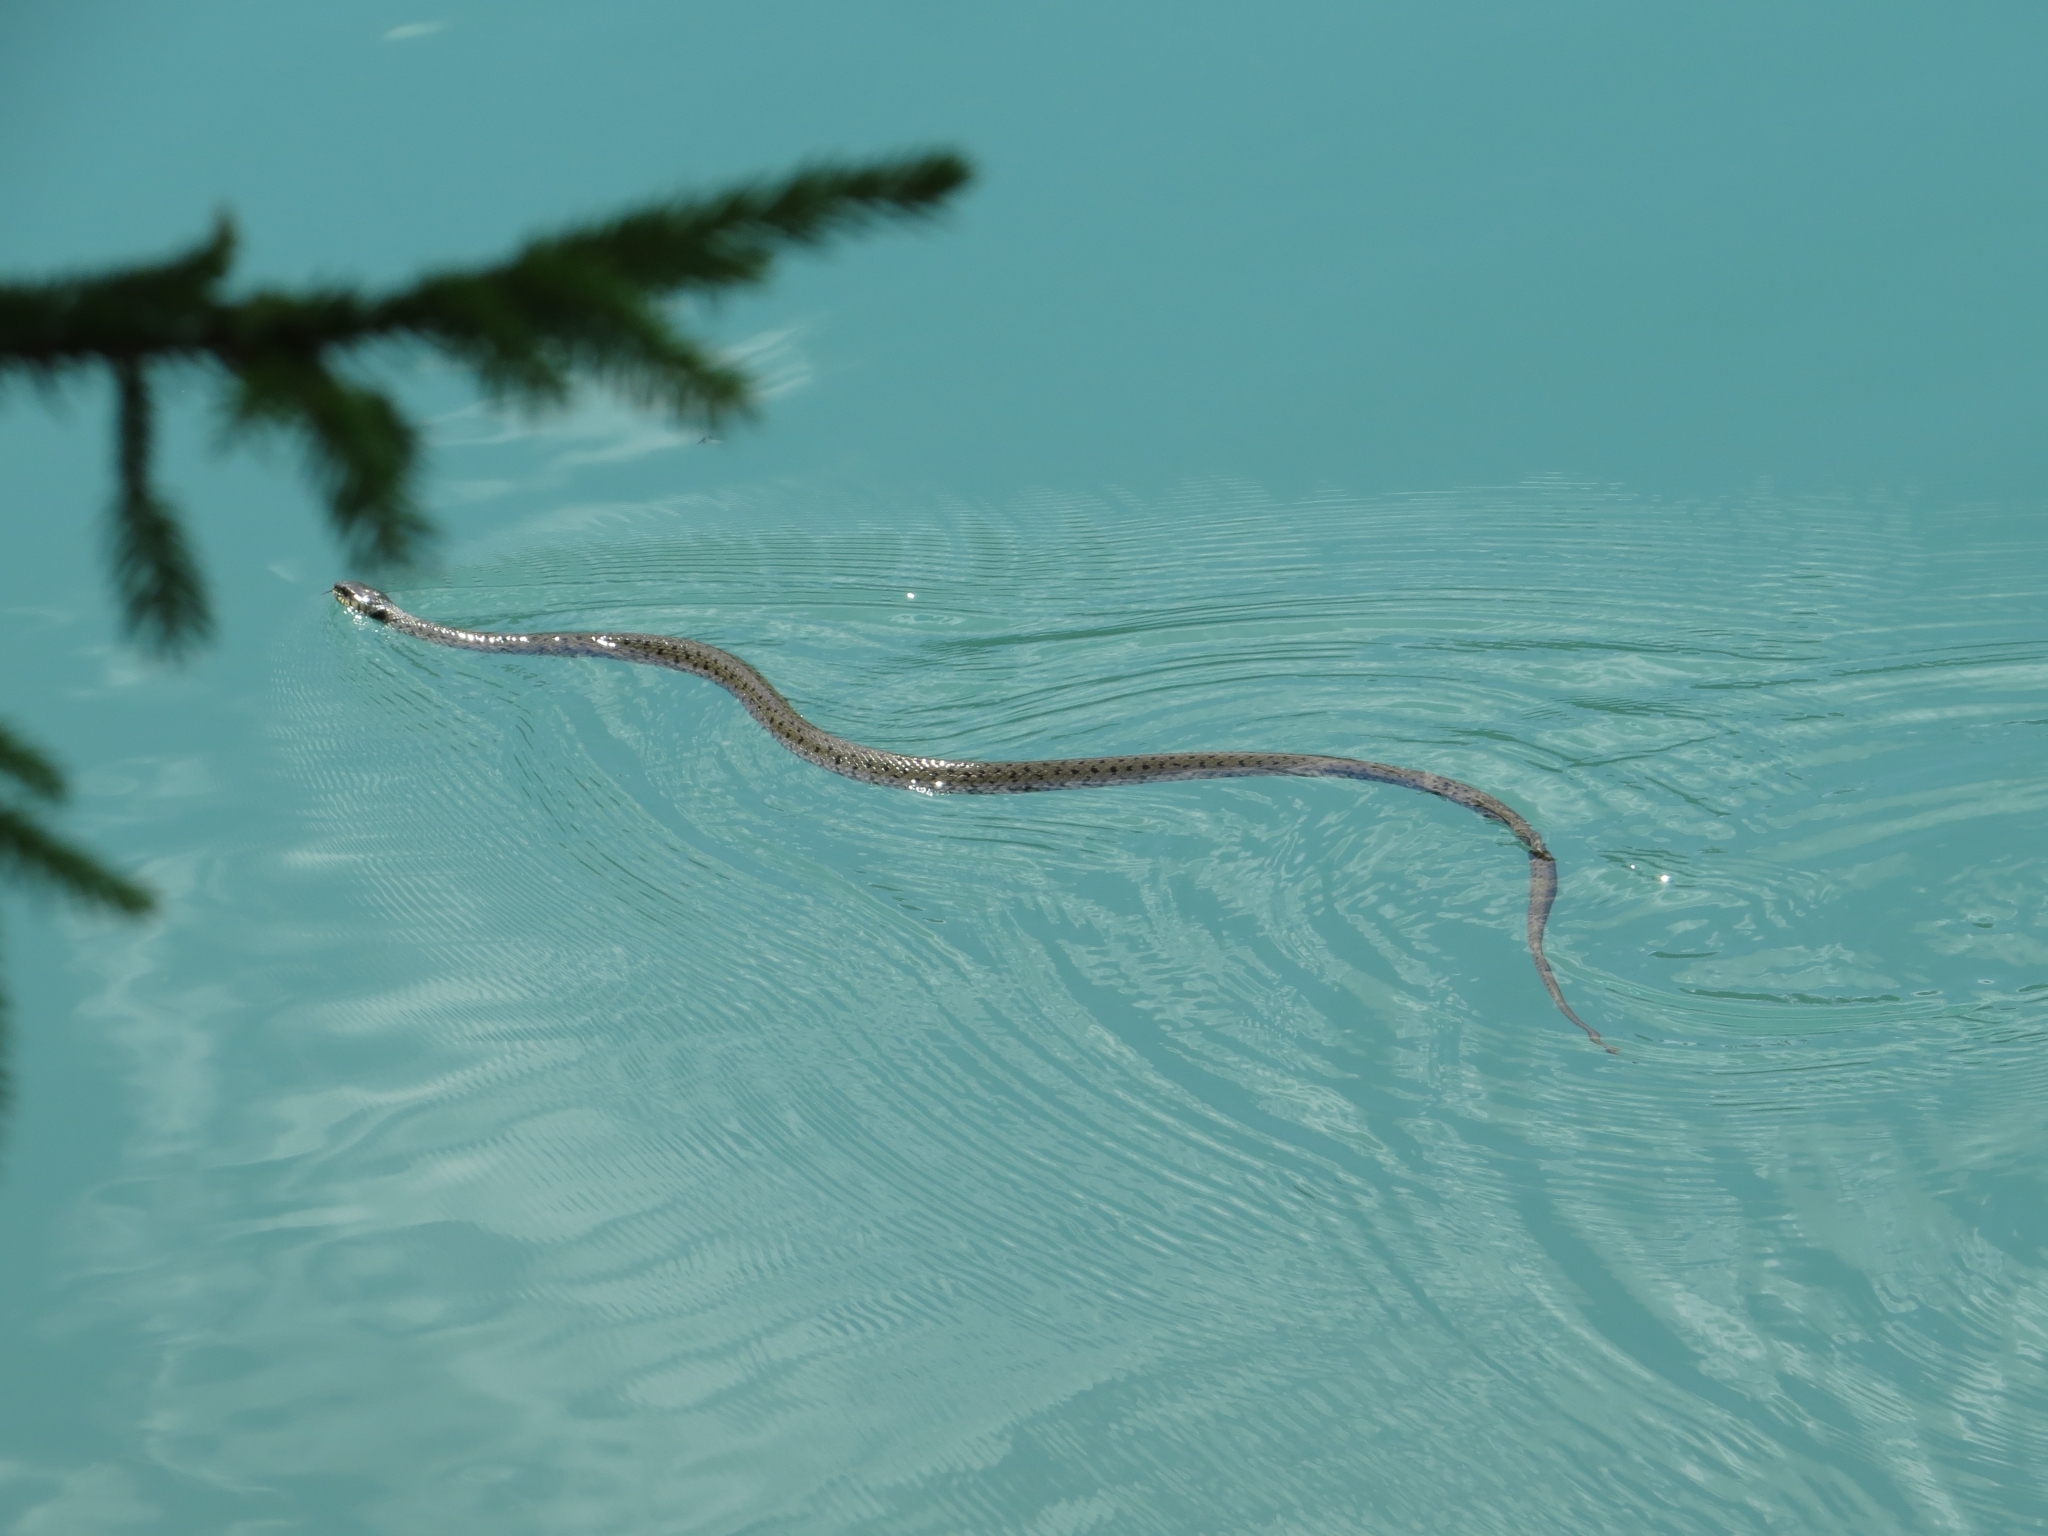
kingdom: Animalia
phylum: Chordata
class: Squamata
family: Colubridae
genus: Natrix
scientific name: Natrix helvetica
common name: Banded grass snake
